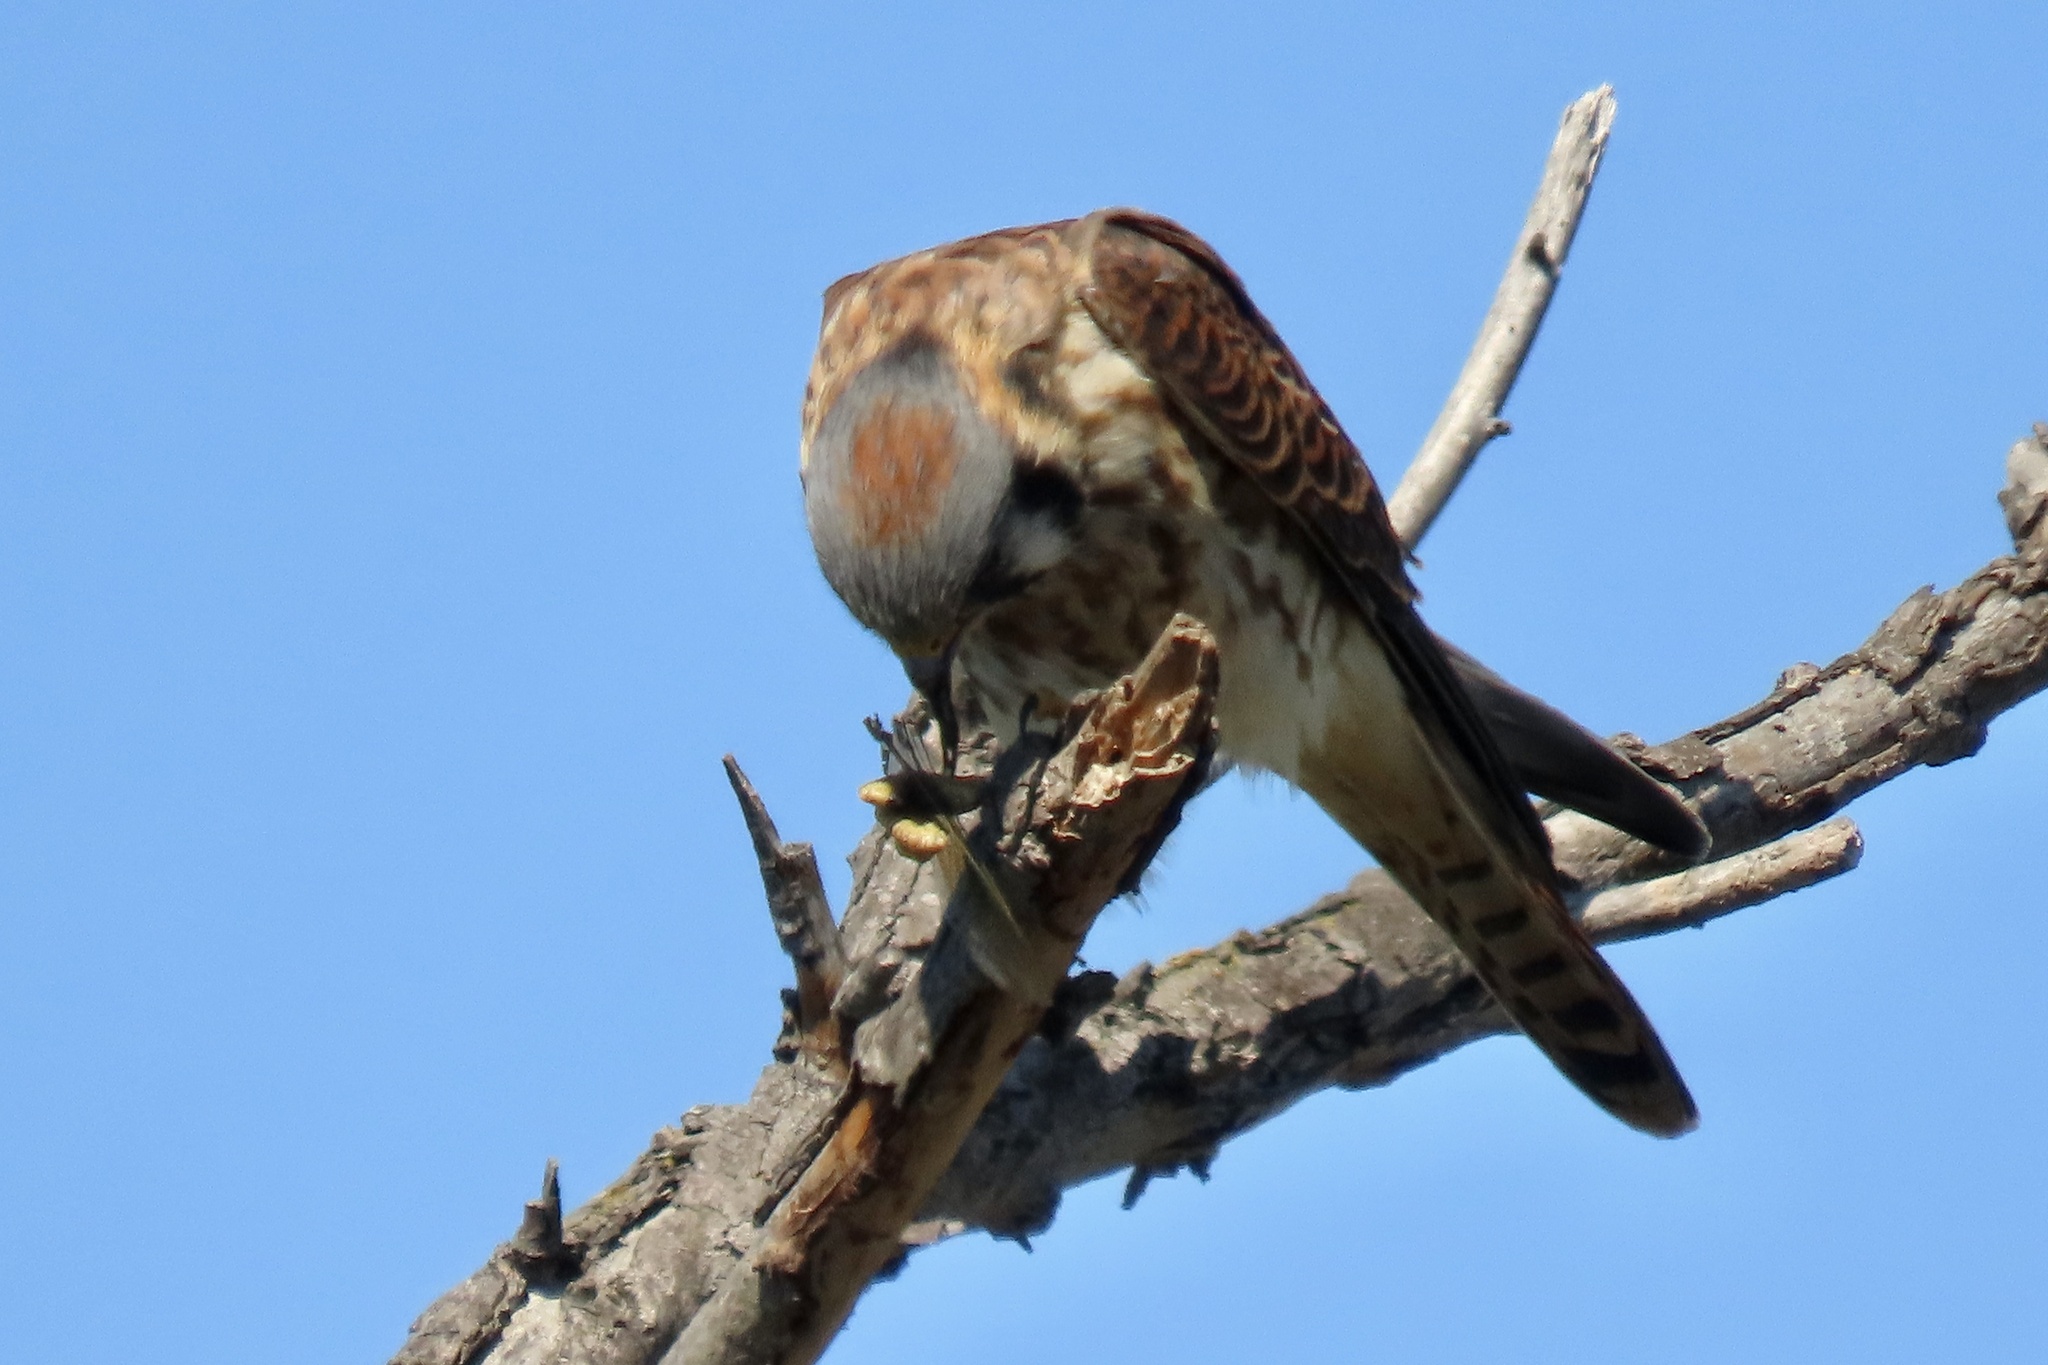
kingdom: Animalia
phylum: Chordata
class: Aves
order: Falconiformes
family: Falconidae
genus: Falco
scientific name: Falco sparverius
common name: American kestrel
